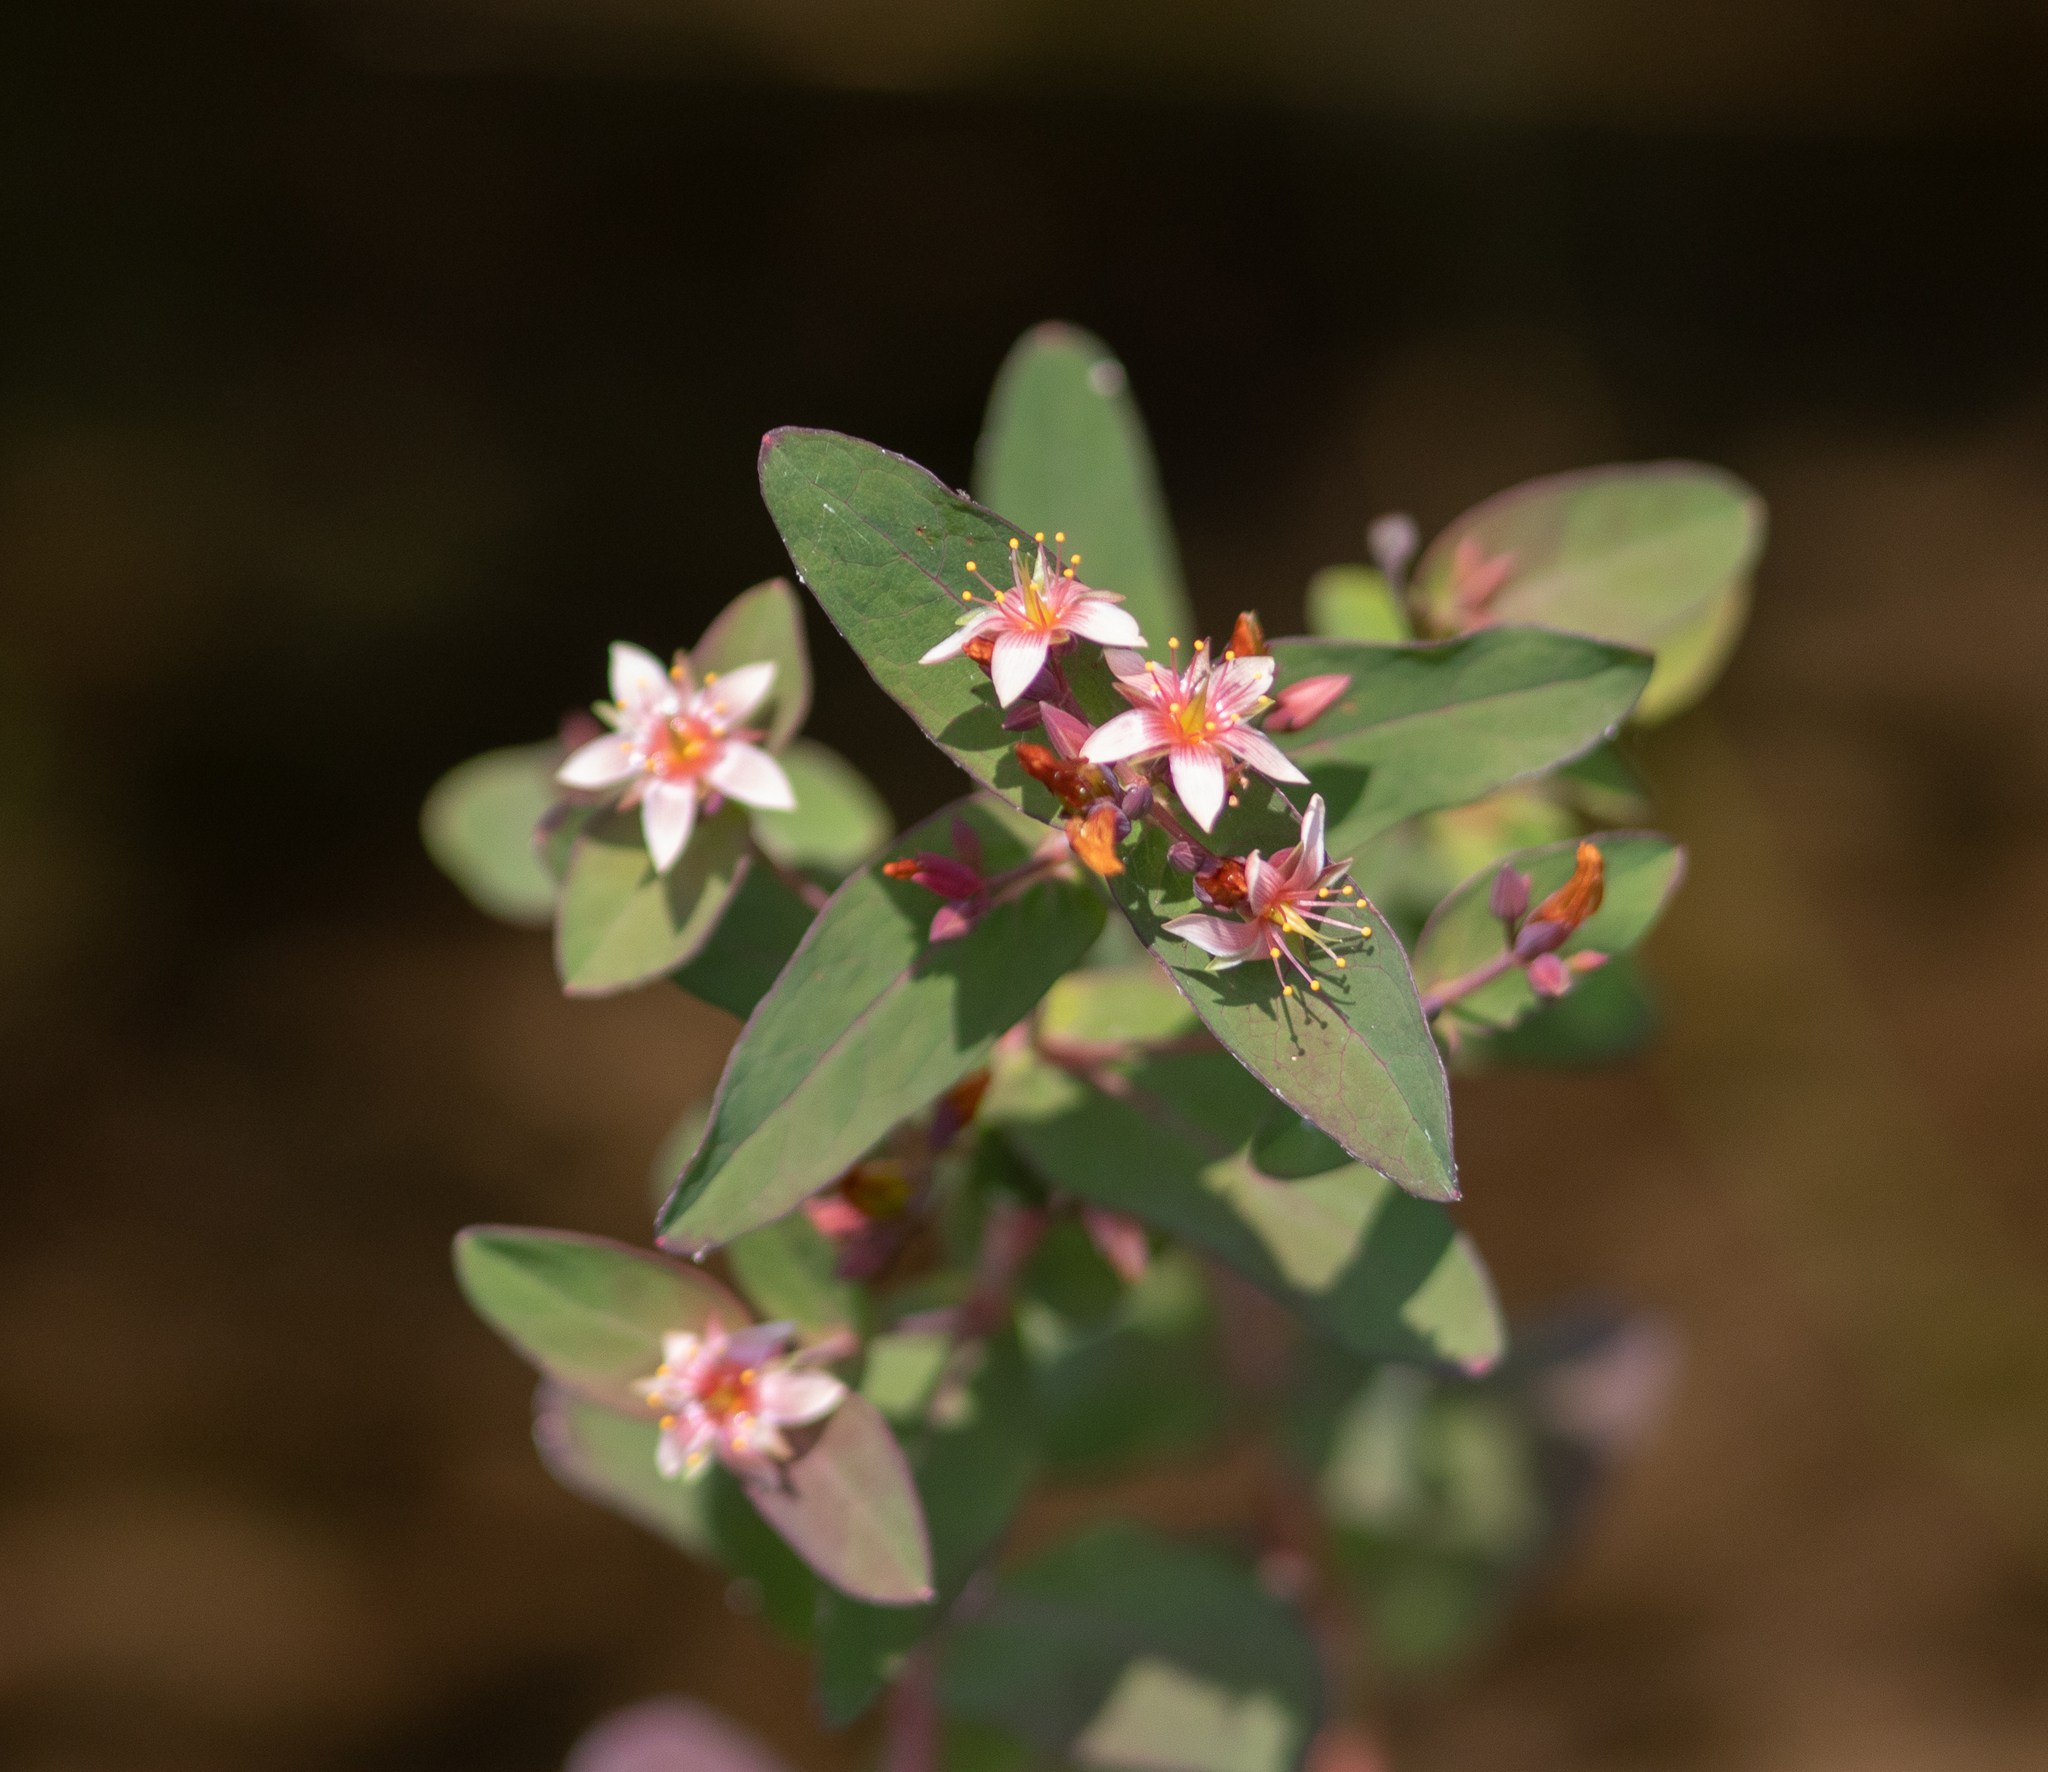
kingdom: Plantae
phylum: Tracheophyta
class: Magnoliopsida
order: Malpighiales
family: Hypericaceae
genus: Triadenum
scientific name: Triadenum virginicum
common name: Marsh st. john's-wort
